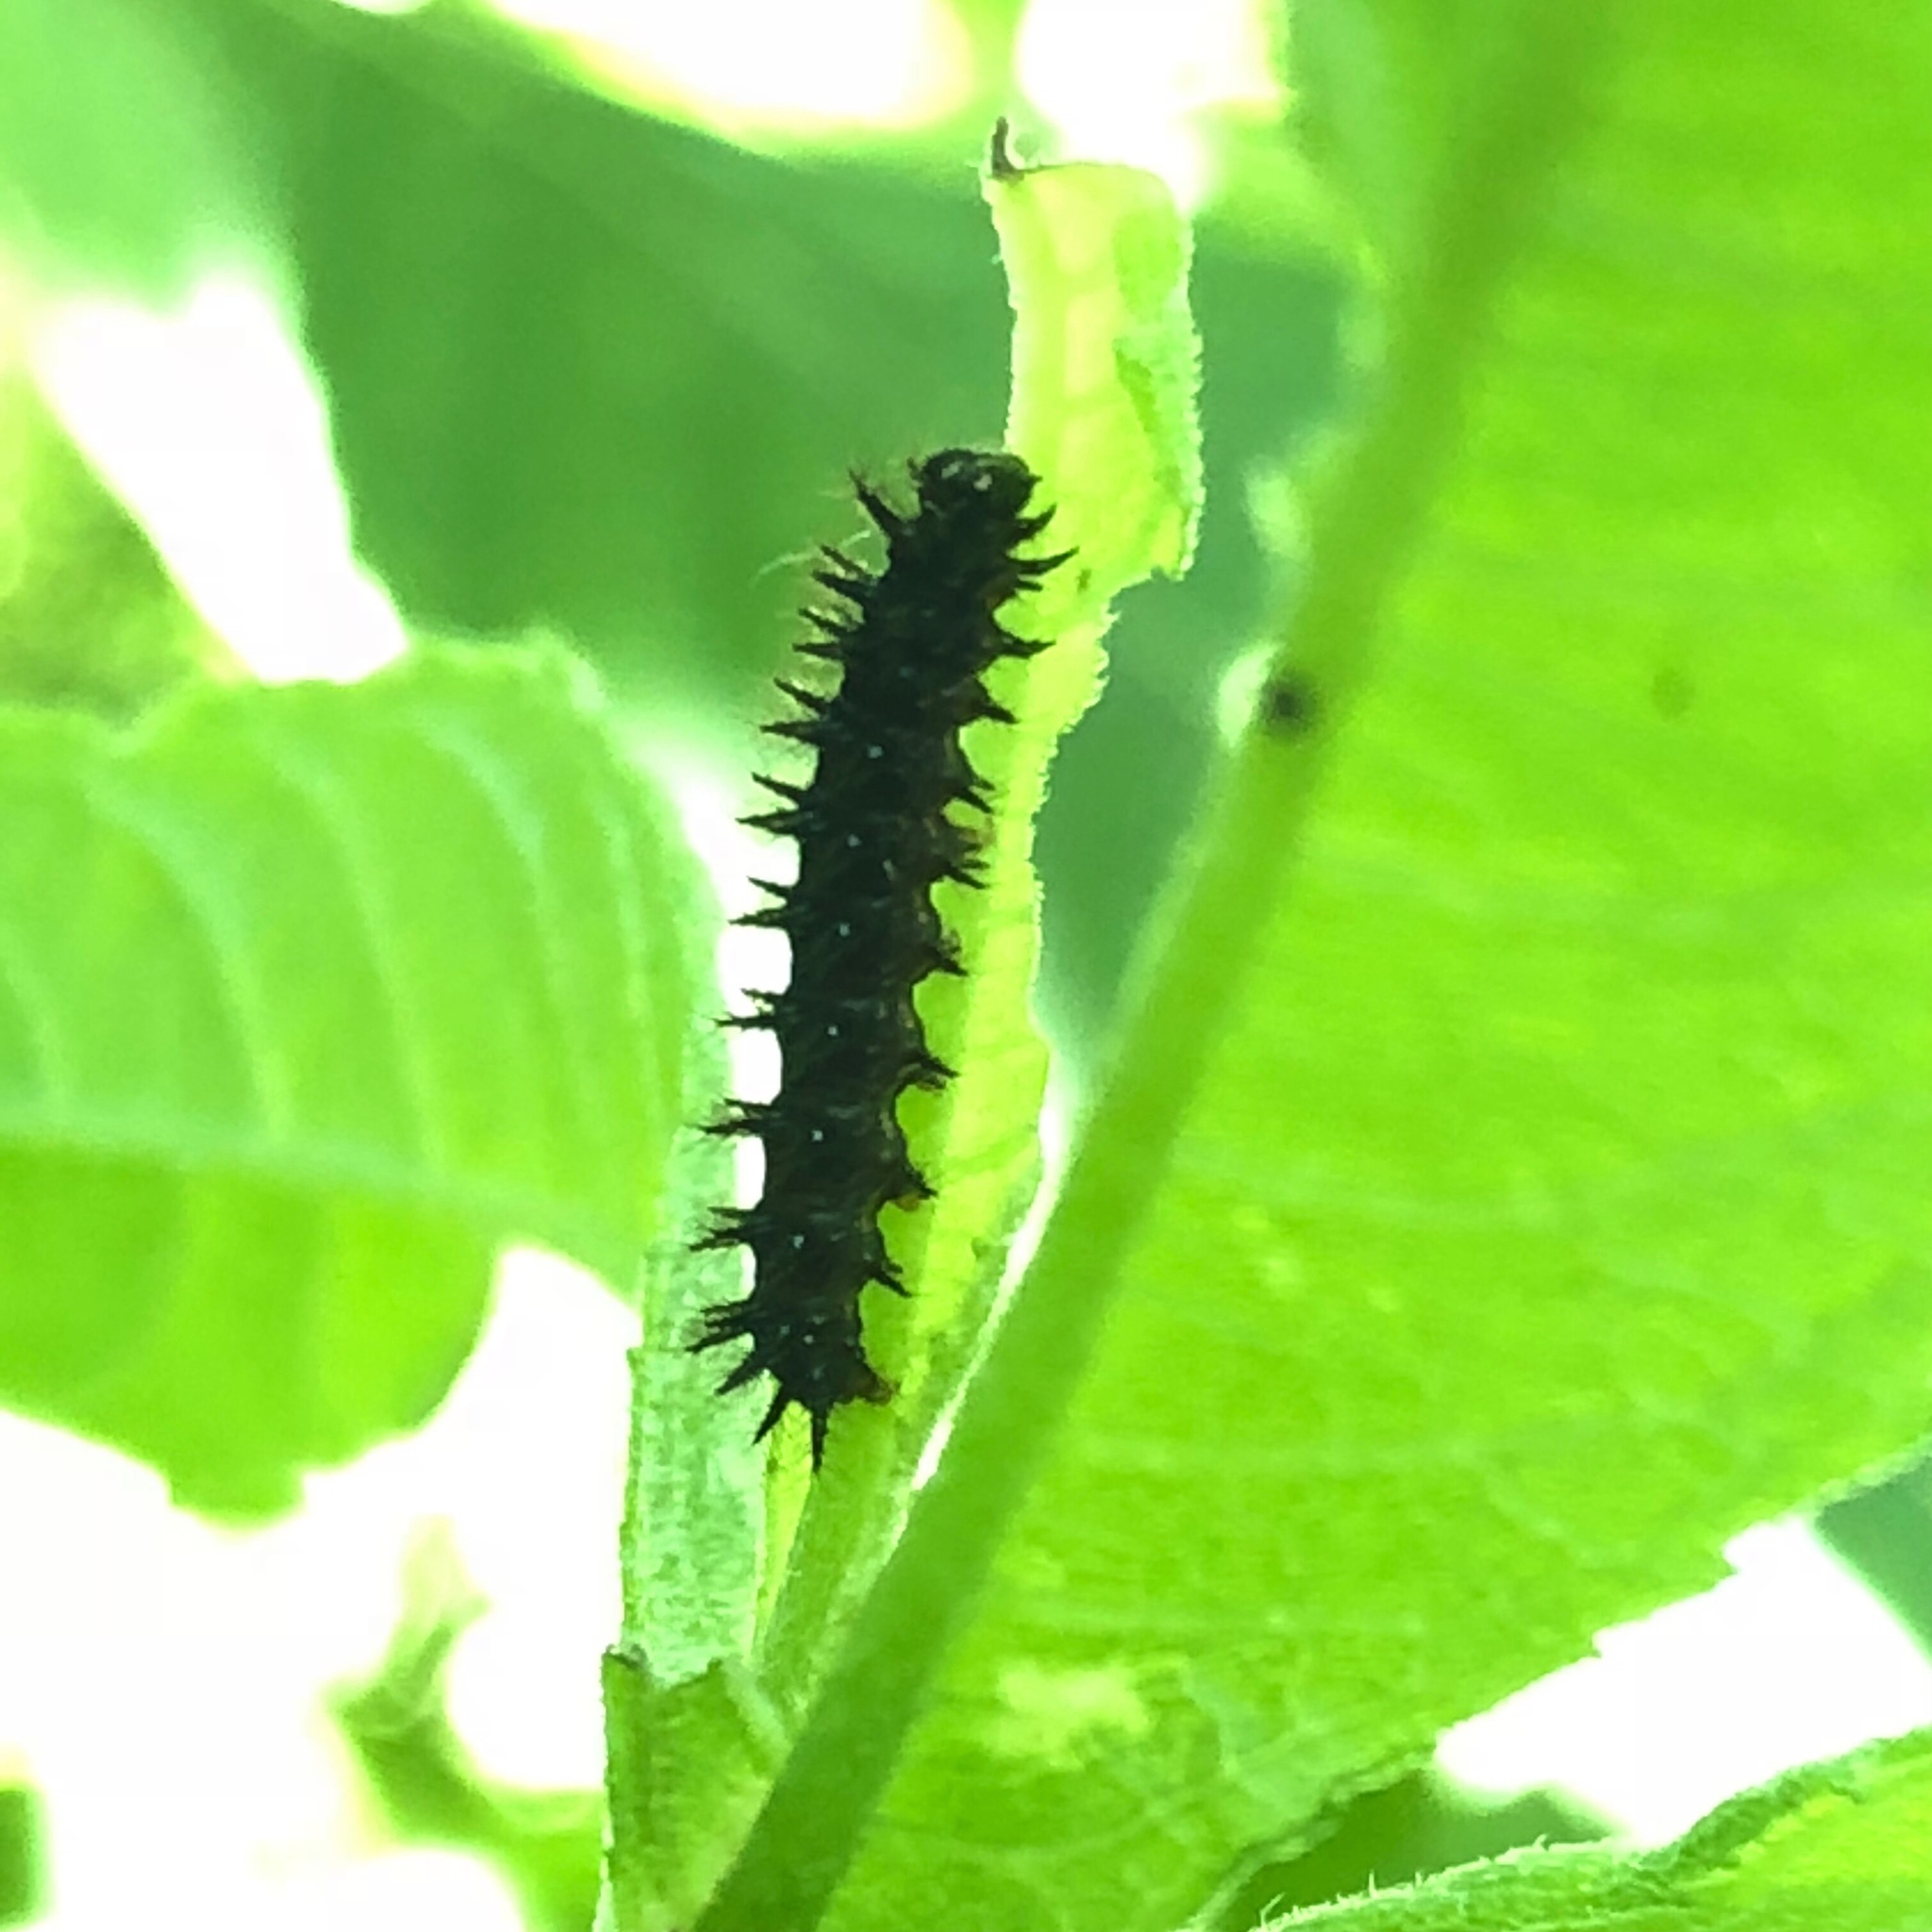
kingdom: Animalia
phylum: Arthropoda
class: Insecta
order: Lepidoptera
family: Nymphalidae
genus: Chlosyne
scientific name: Chlosyne nycteis
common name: Silvery checkerspot
